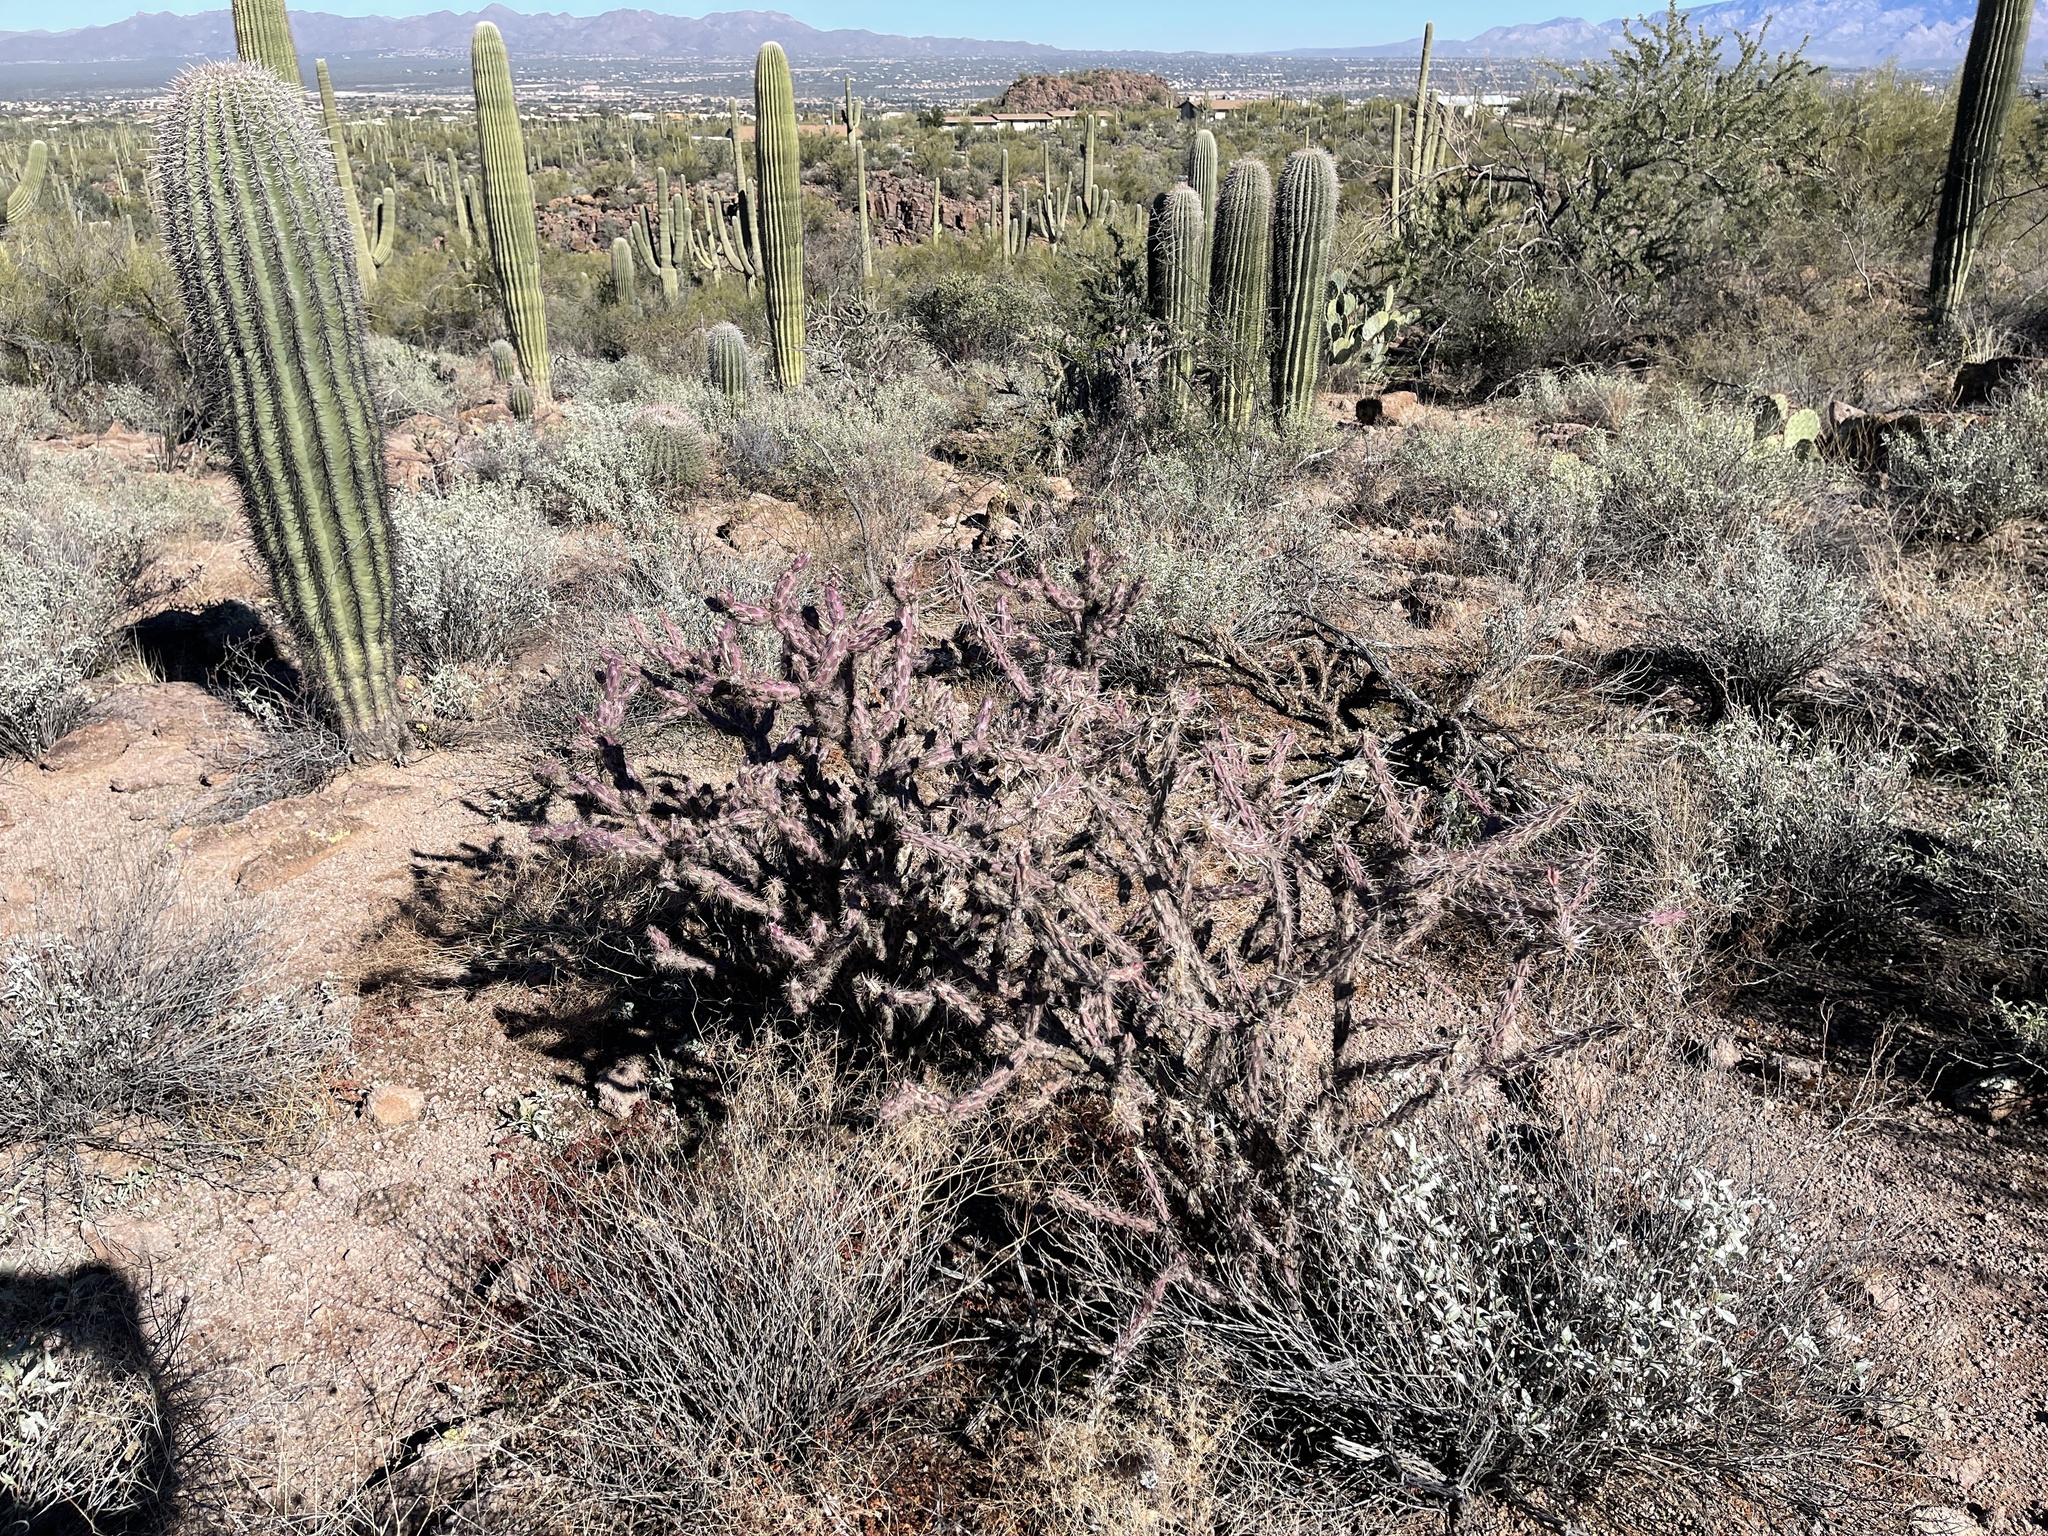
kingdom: Plantae
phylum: Tracheophyta
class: Magnoliopsida
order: Caryophyllales
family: Cactaceae
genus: Cylindropuntia
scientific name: Cylindropuntia thurberi
